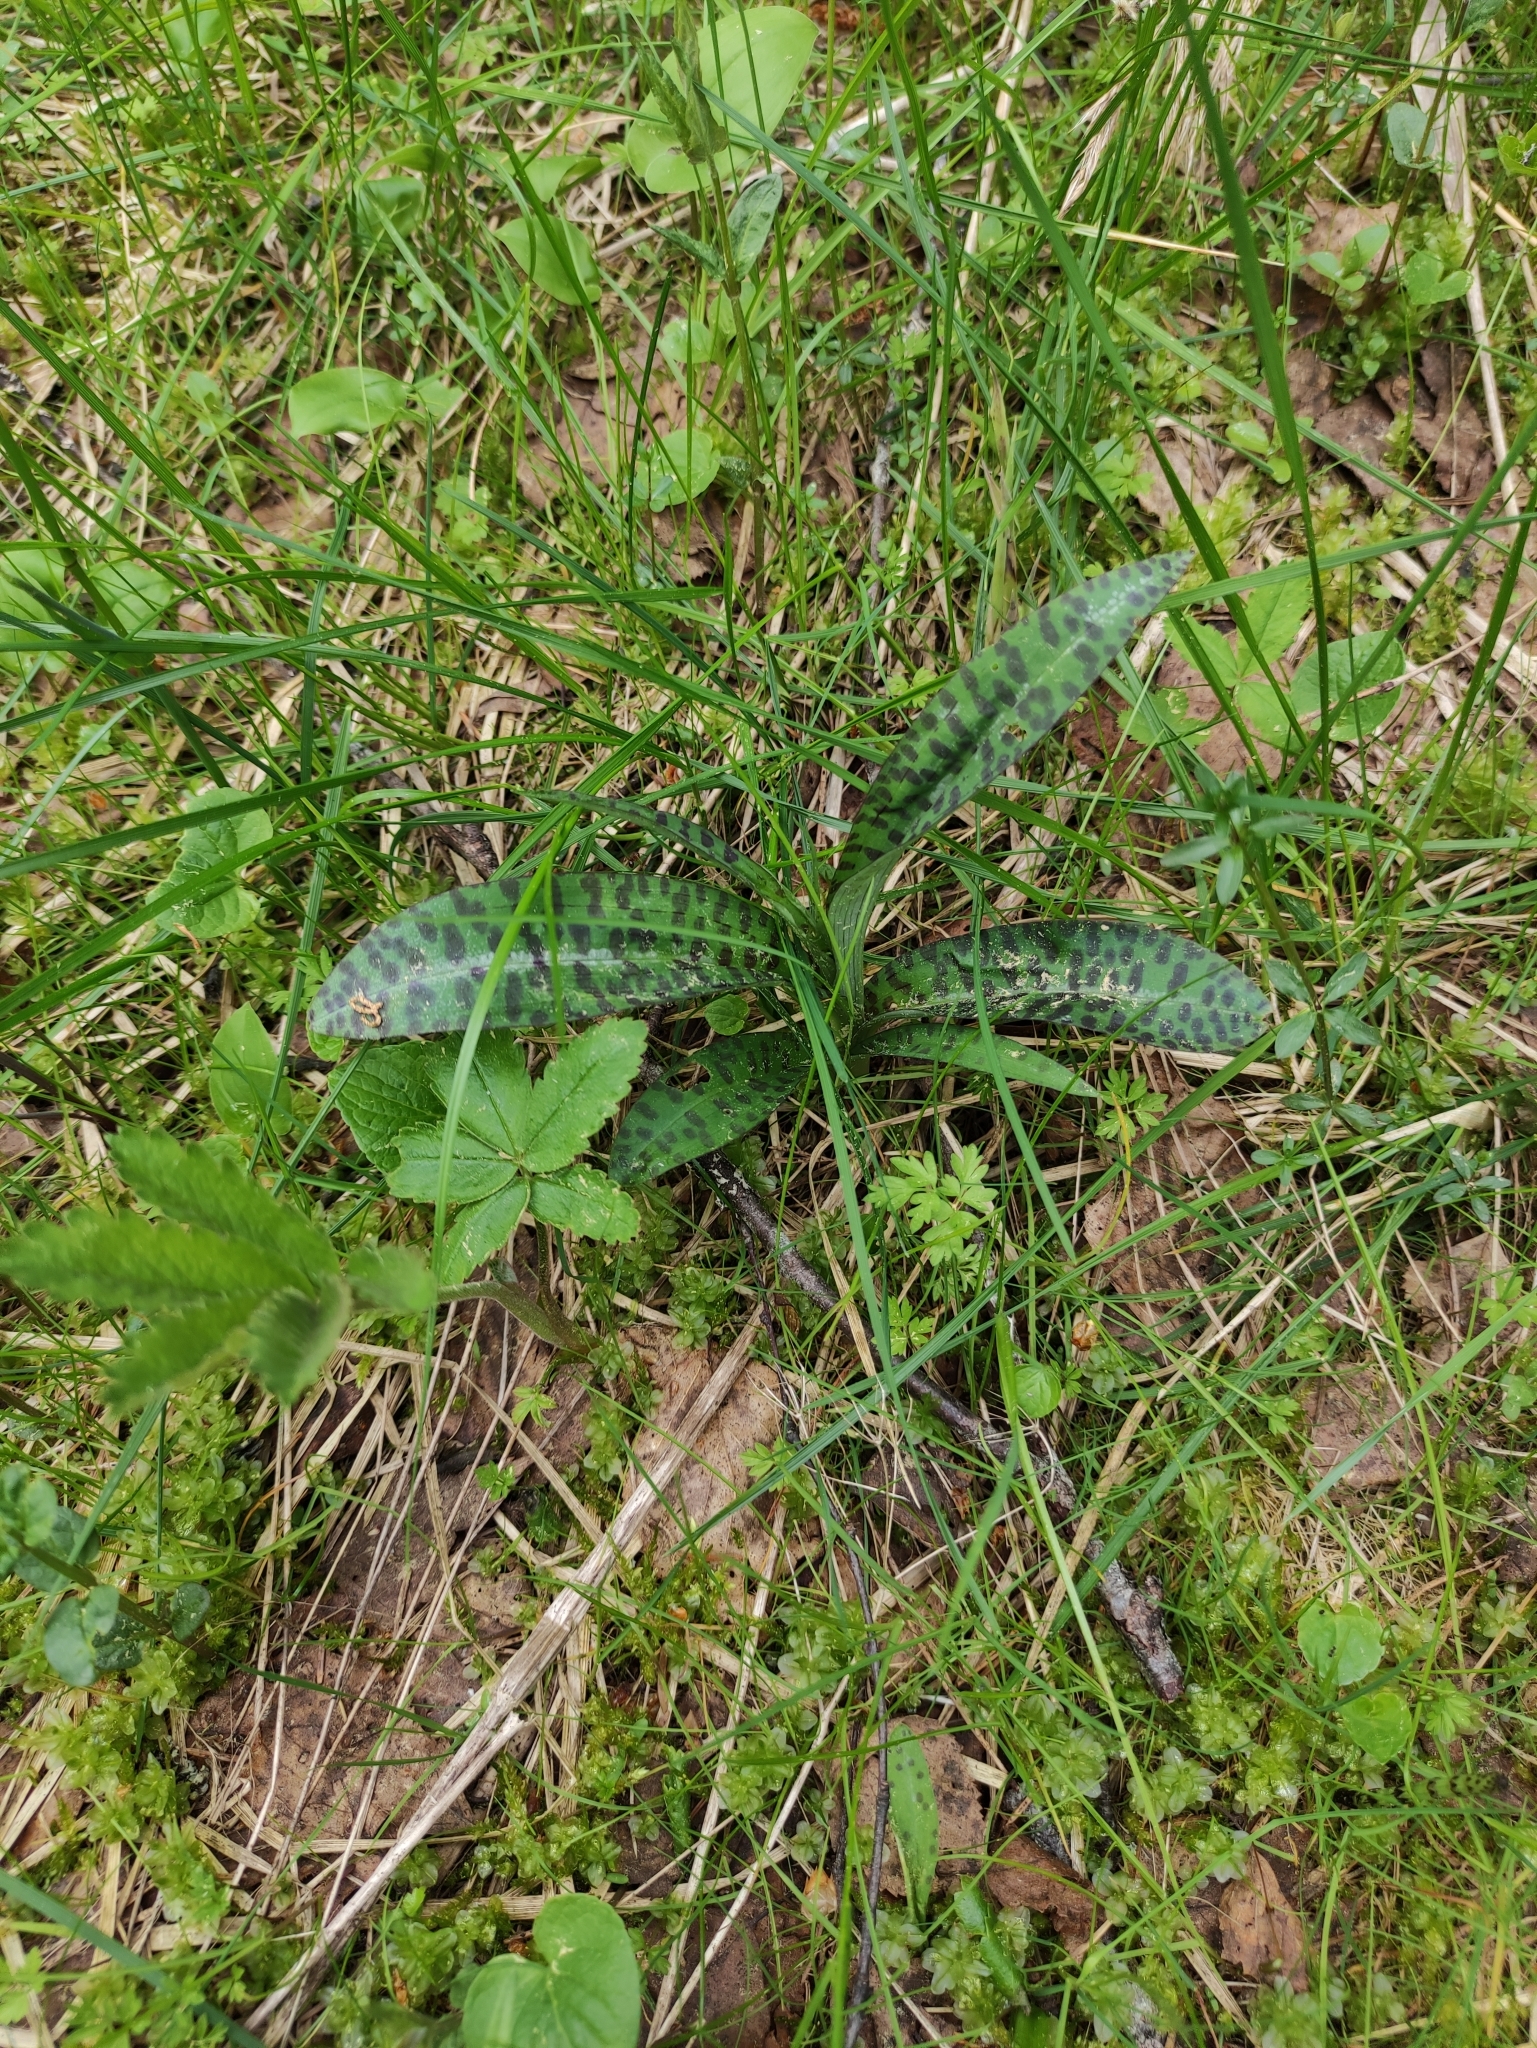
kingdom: Plantae
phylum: Tracheophyta
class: Liliopsida
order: Asparagales
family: Orchidaceae
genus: Dactylorhiza
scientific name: Dactylorhiza maculata
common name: Heath spotted-orchid
